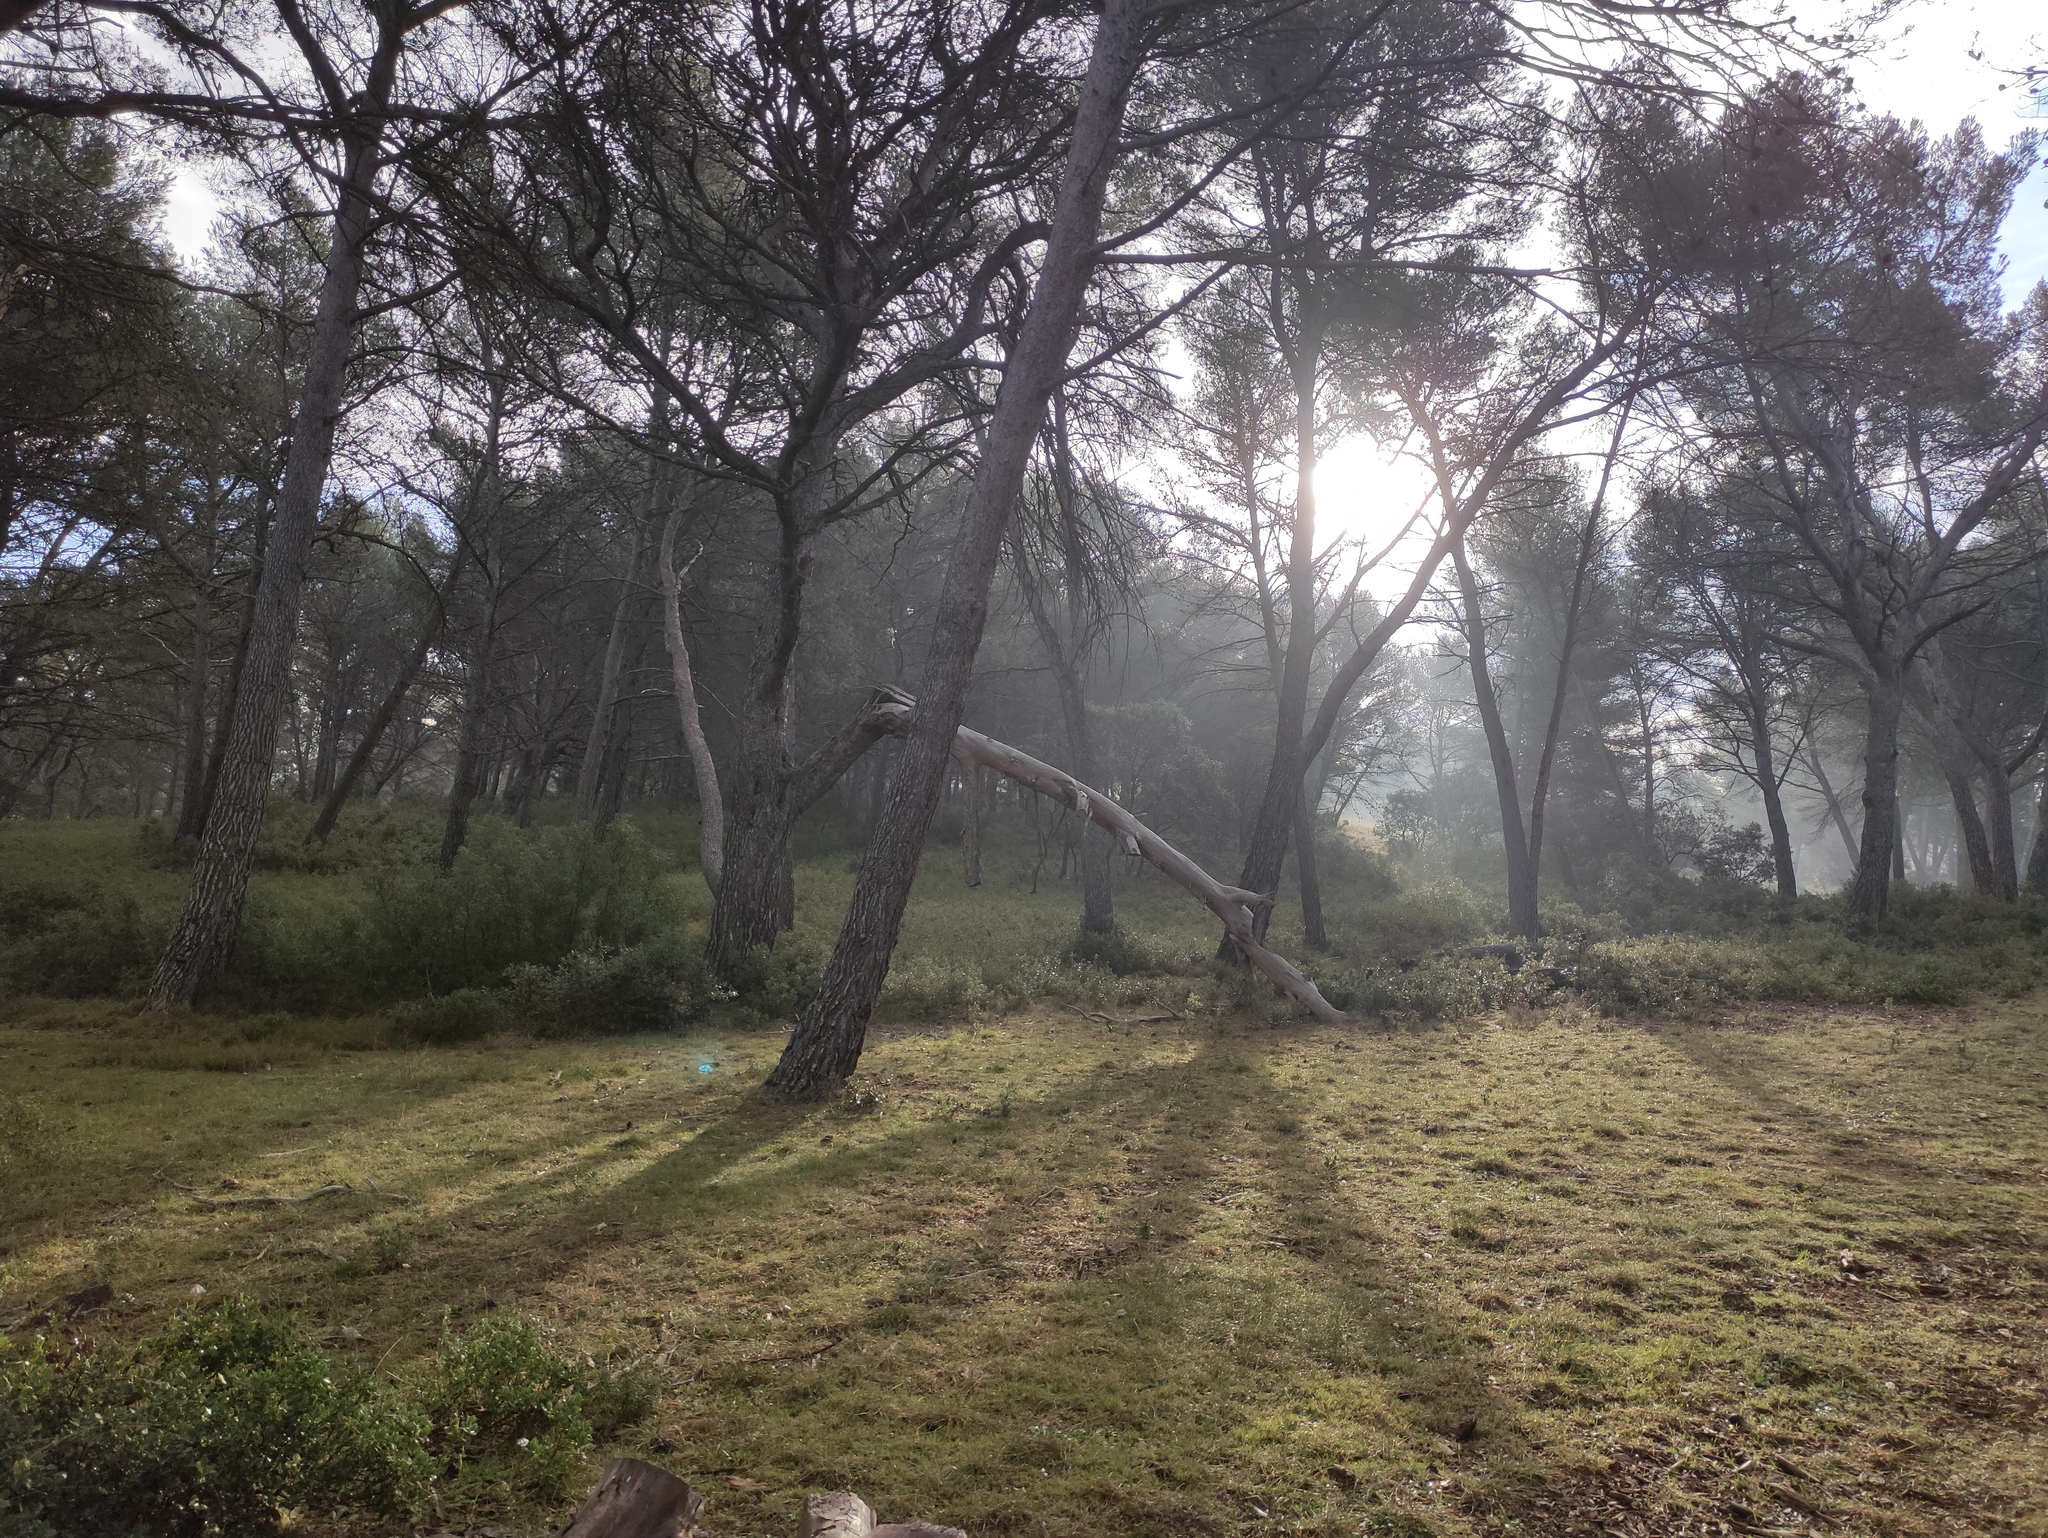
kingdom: Plantae
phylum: Tracheophyta
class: Pinopsida
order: Pinales
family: Pinaceae
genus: Pinus
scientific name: Pinus halepensis
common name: Aleppo pine
